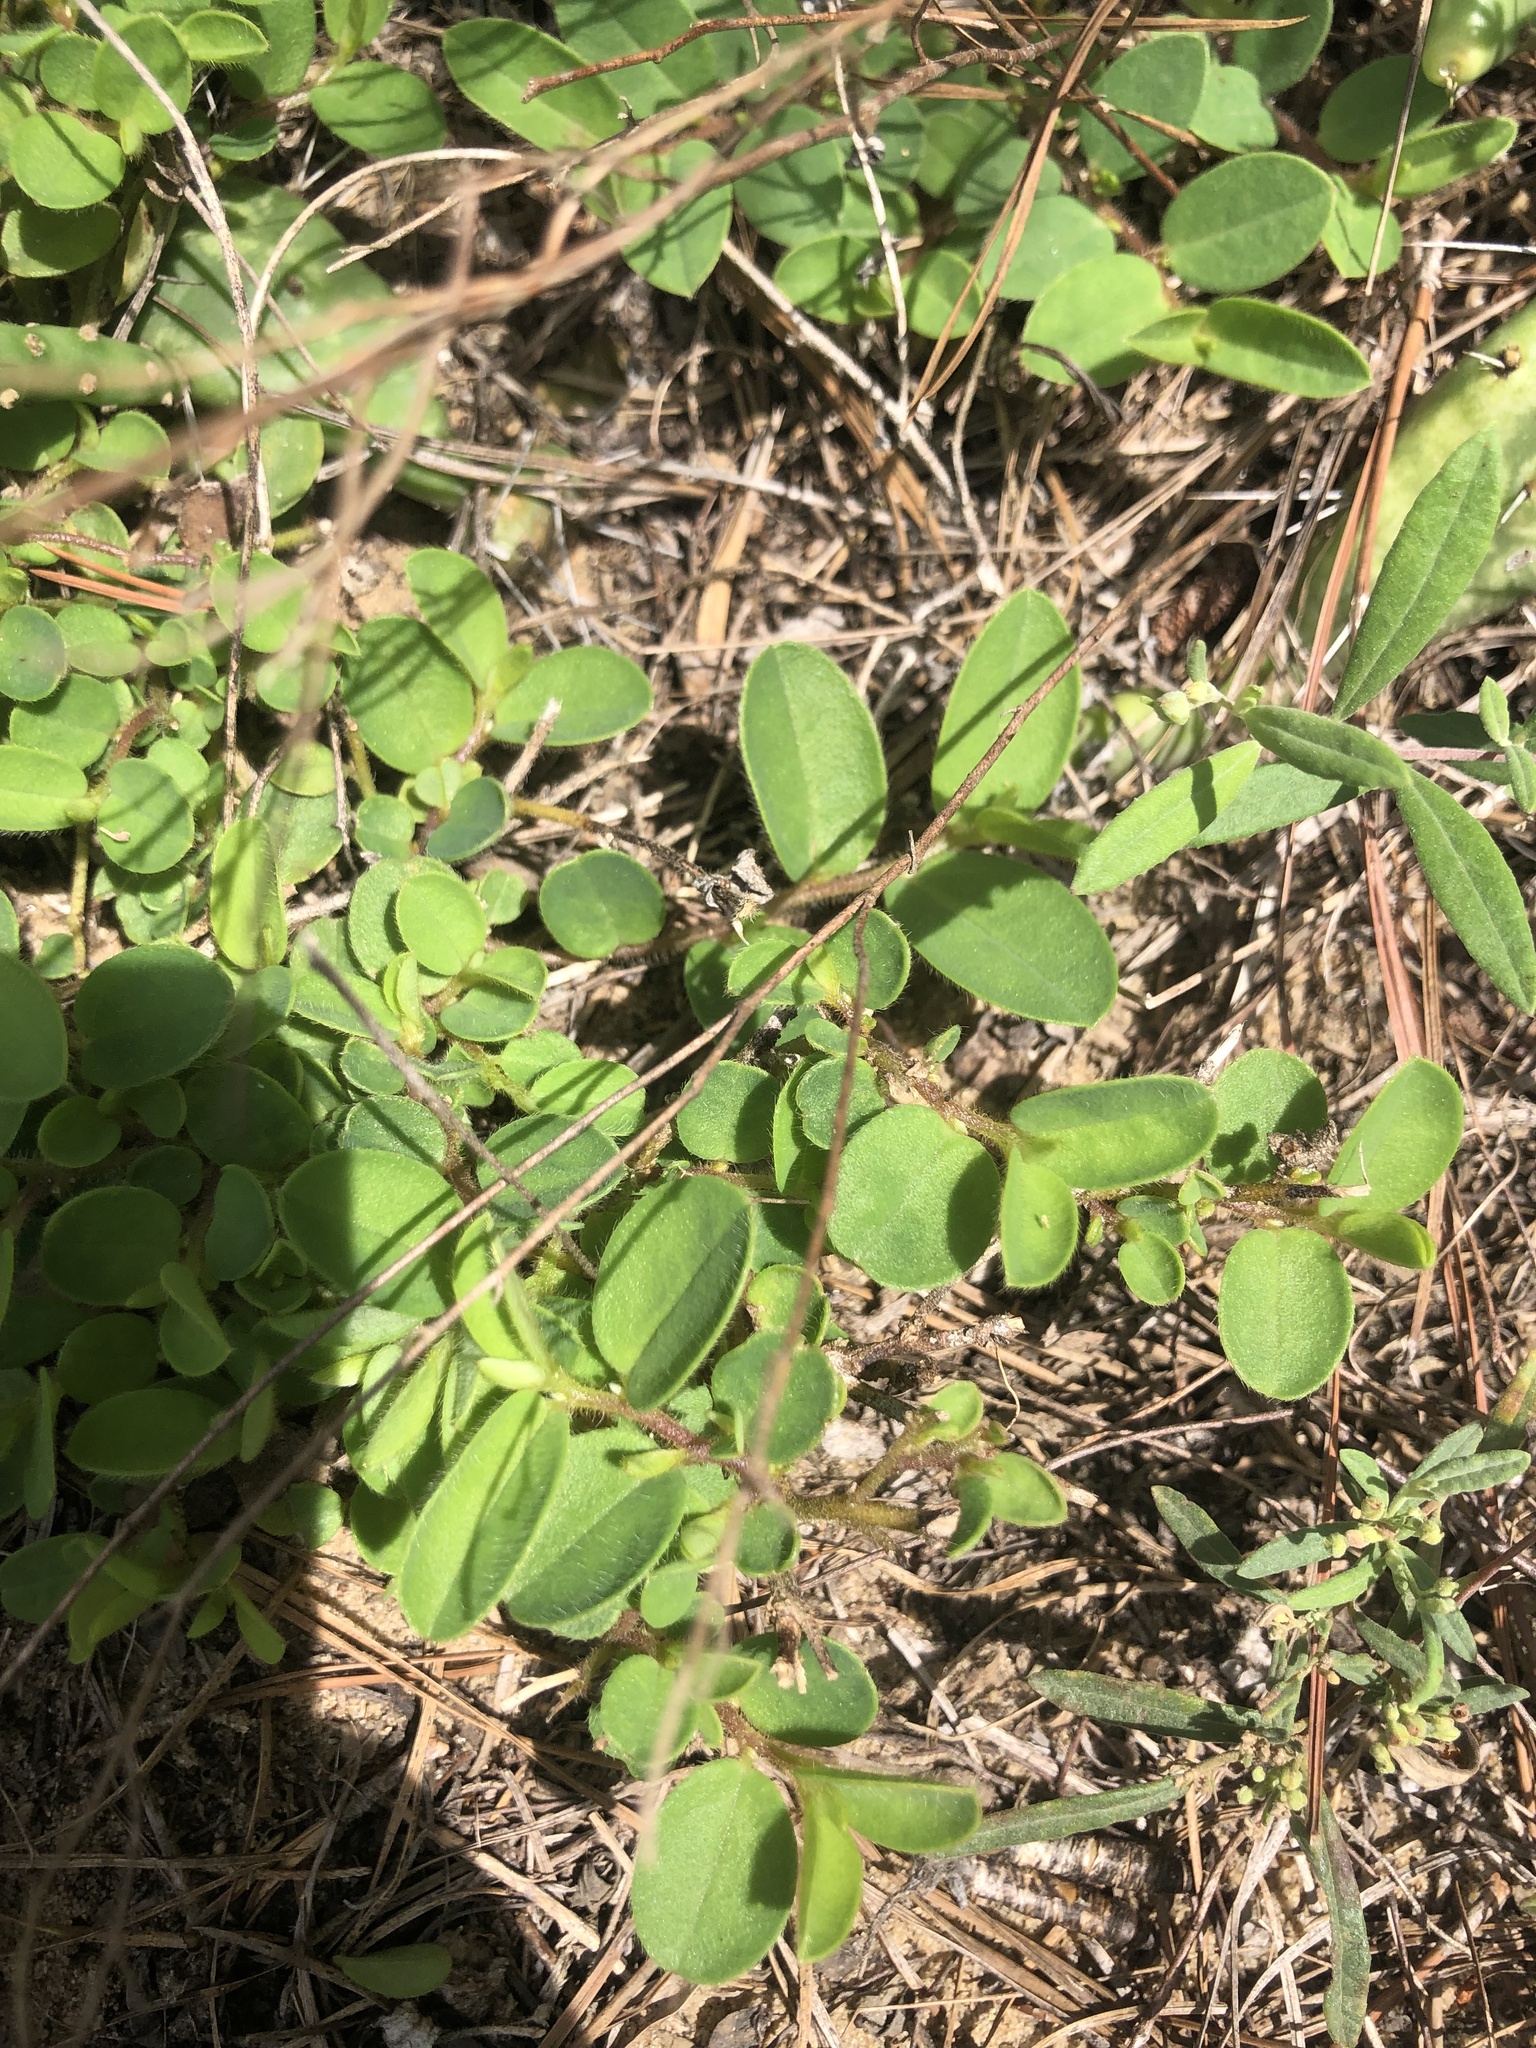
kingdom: Plantae
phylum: Tracheophyta
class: Magnoliopsida
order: Fabales
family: Fabaceae
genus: Crotalaria
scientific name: Crotalaria rotundifolia
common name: Prostrate rattlebox
